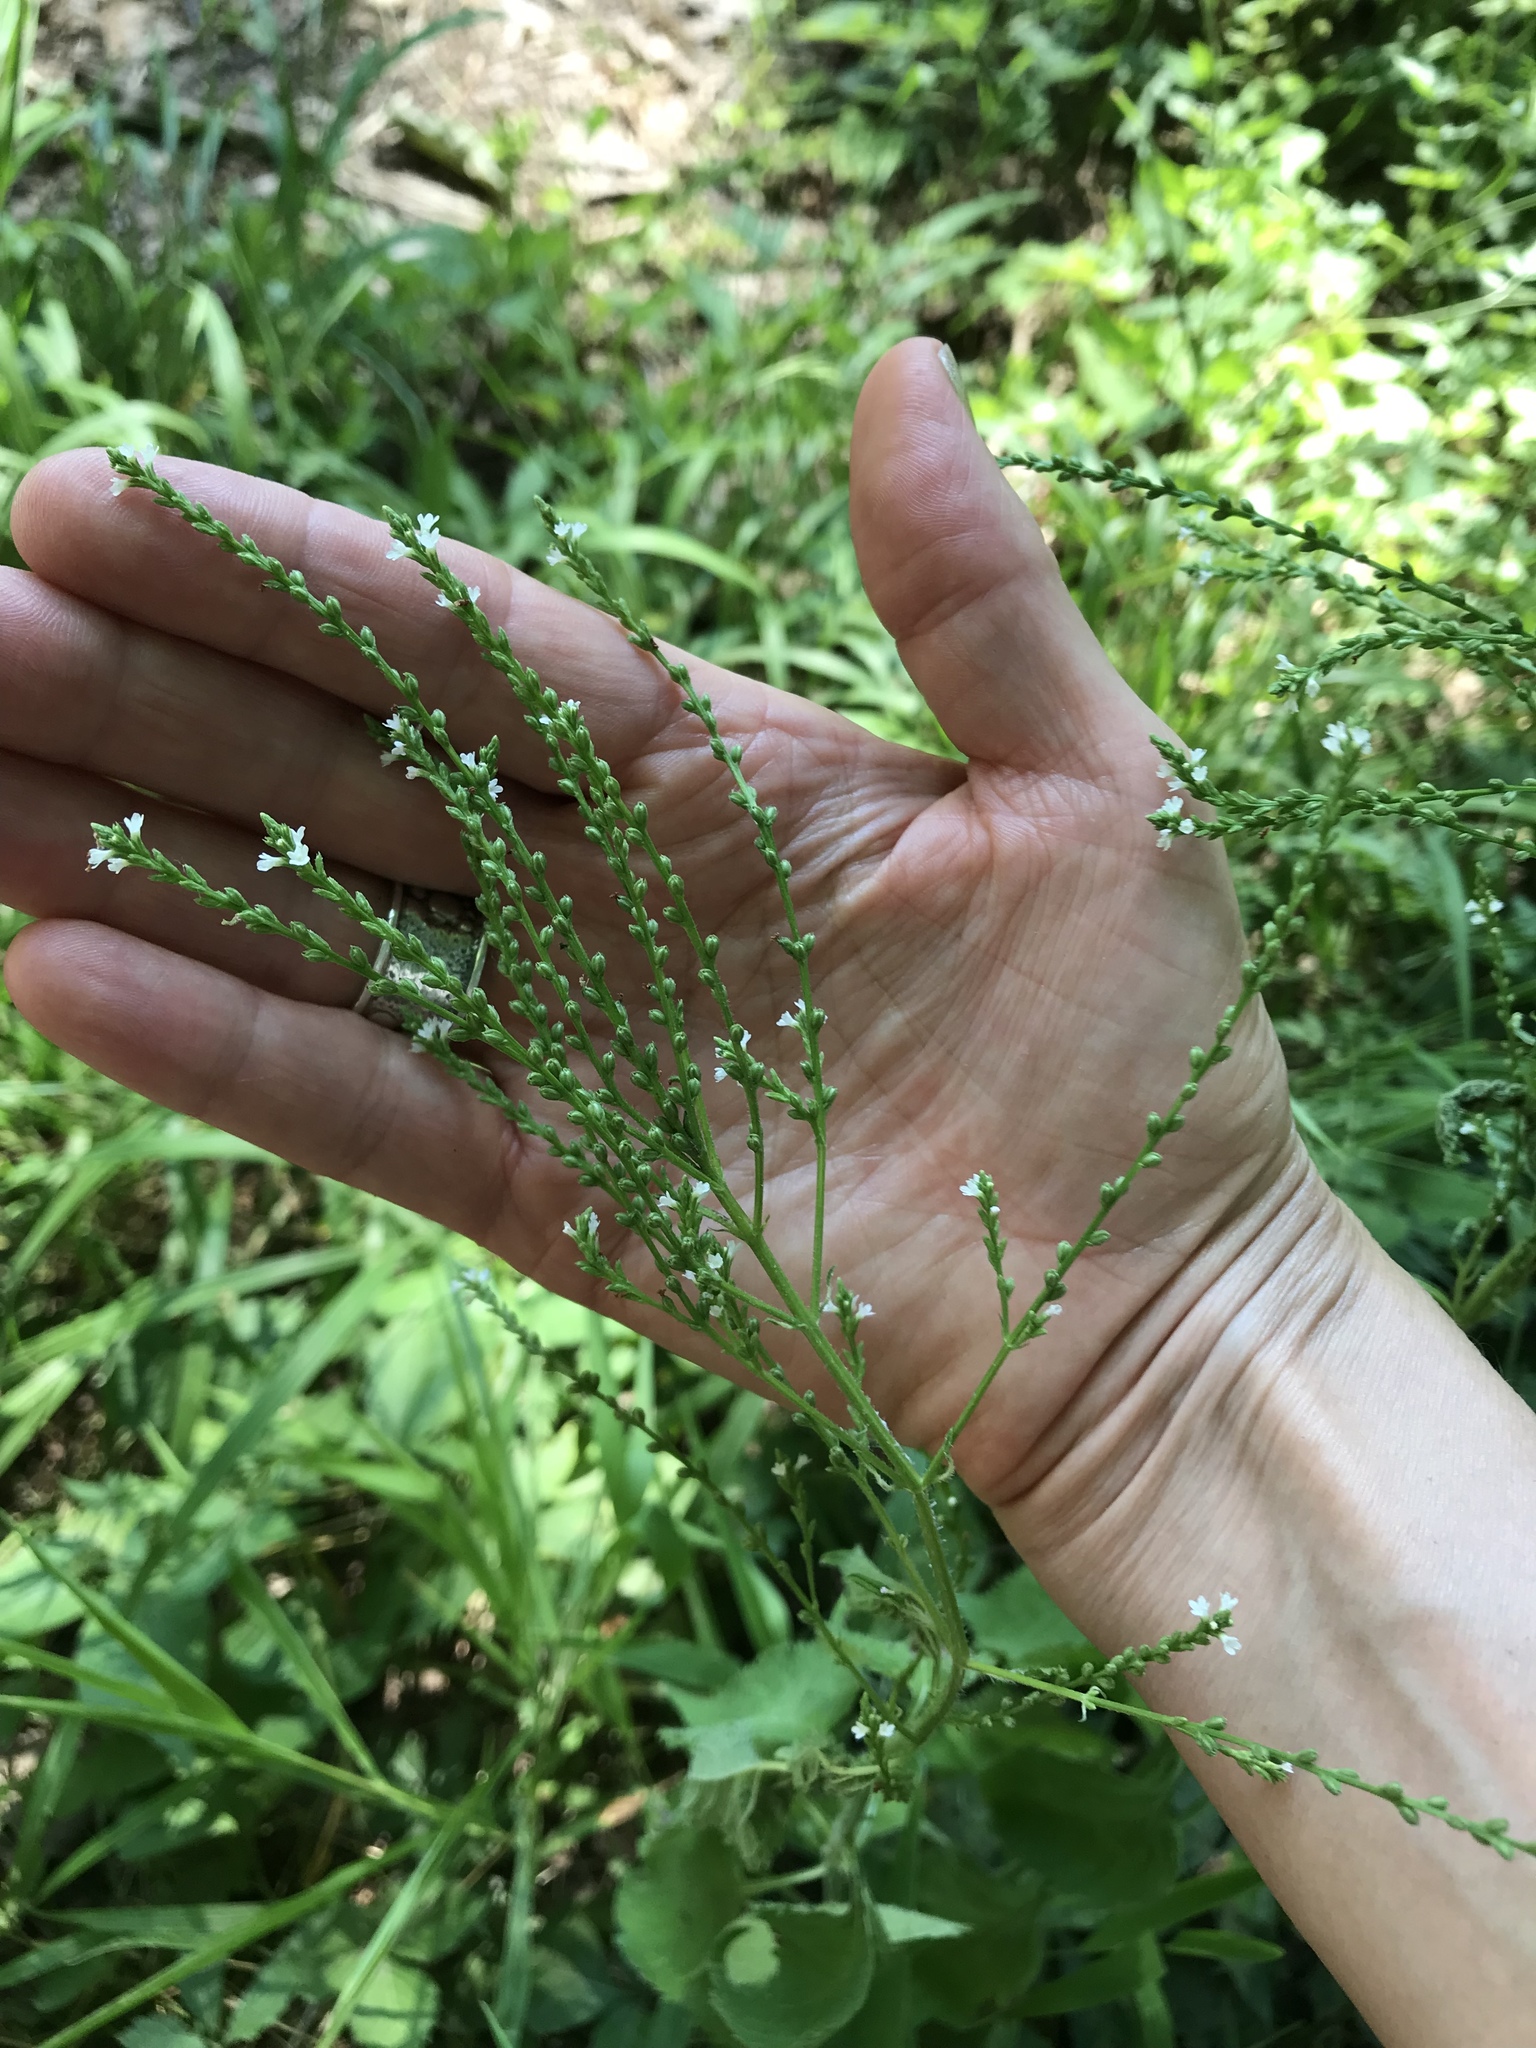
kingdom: Plantae
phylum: Tracheophyta
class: Magnoliopsida
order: Lamiales
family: Verbenaceae
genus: Verbena
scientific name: Verbena urticifolia
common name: Nettle-leaved vervain
